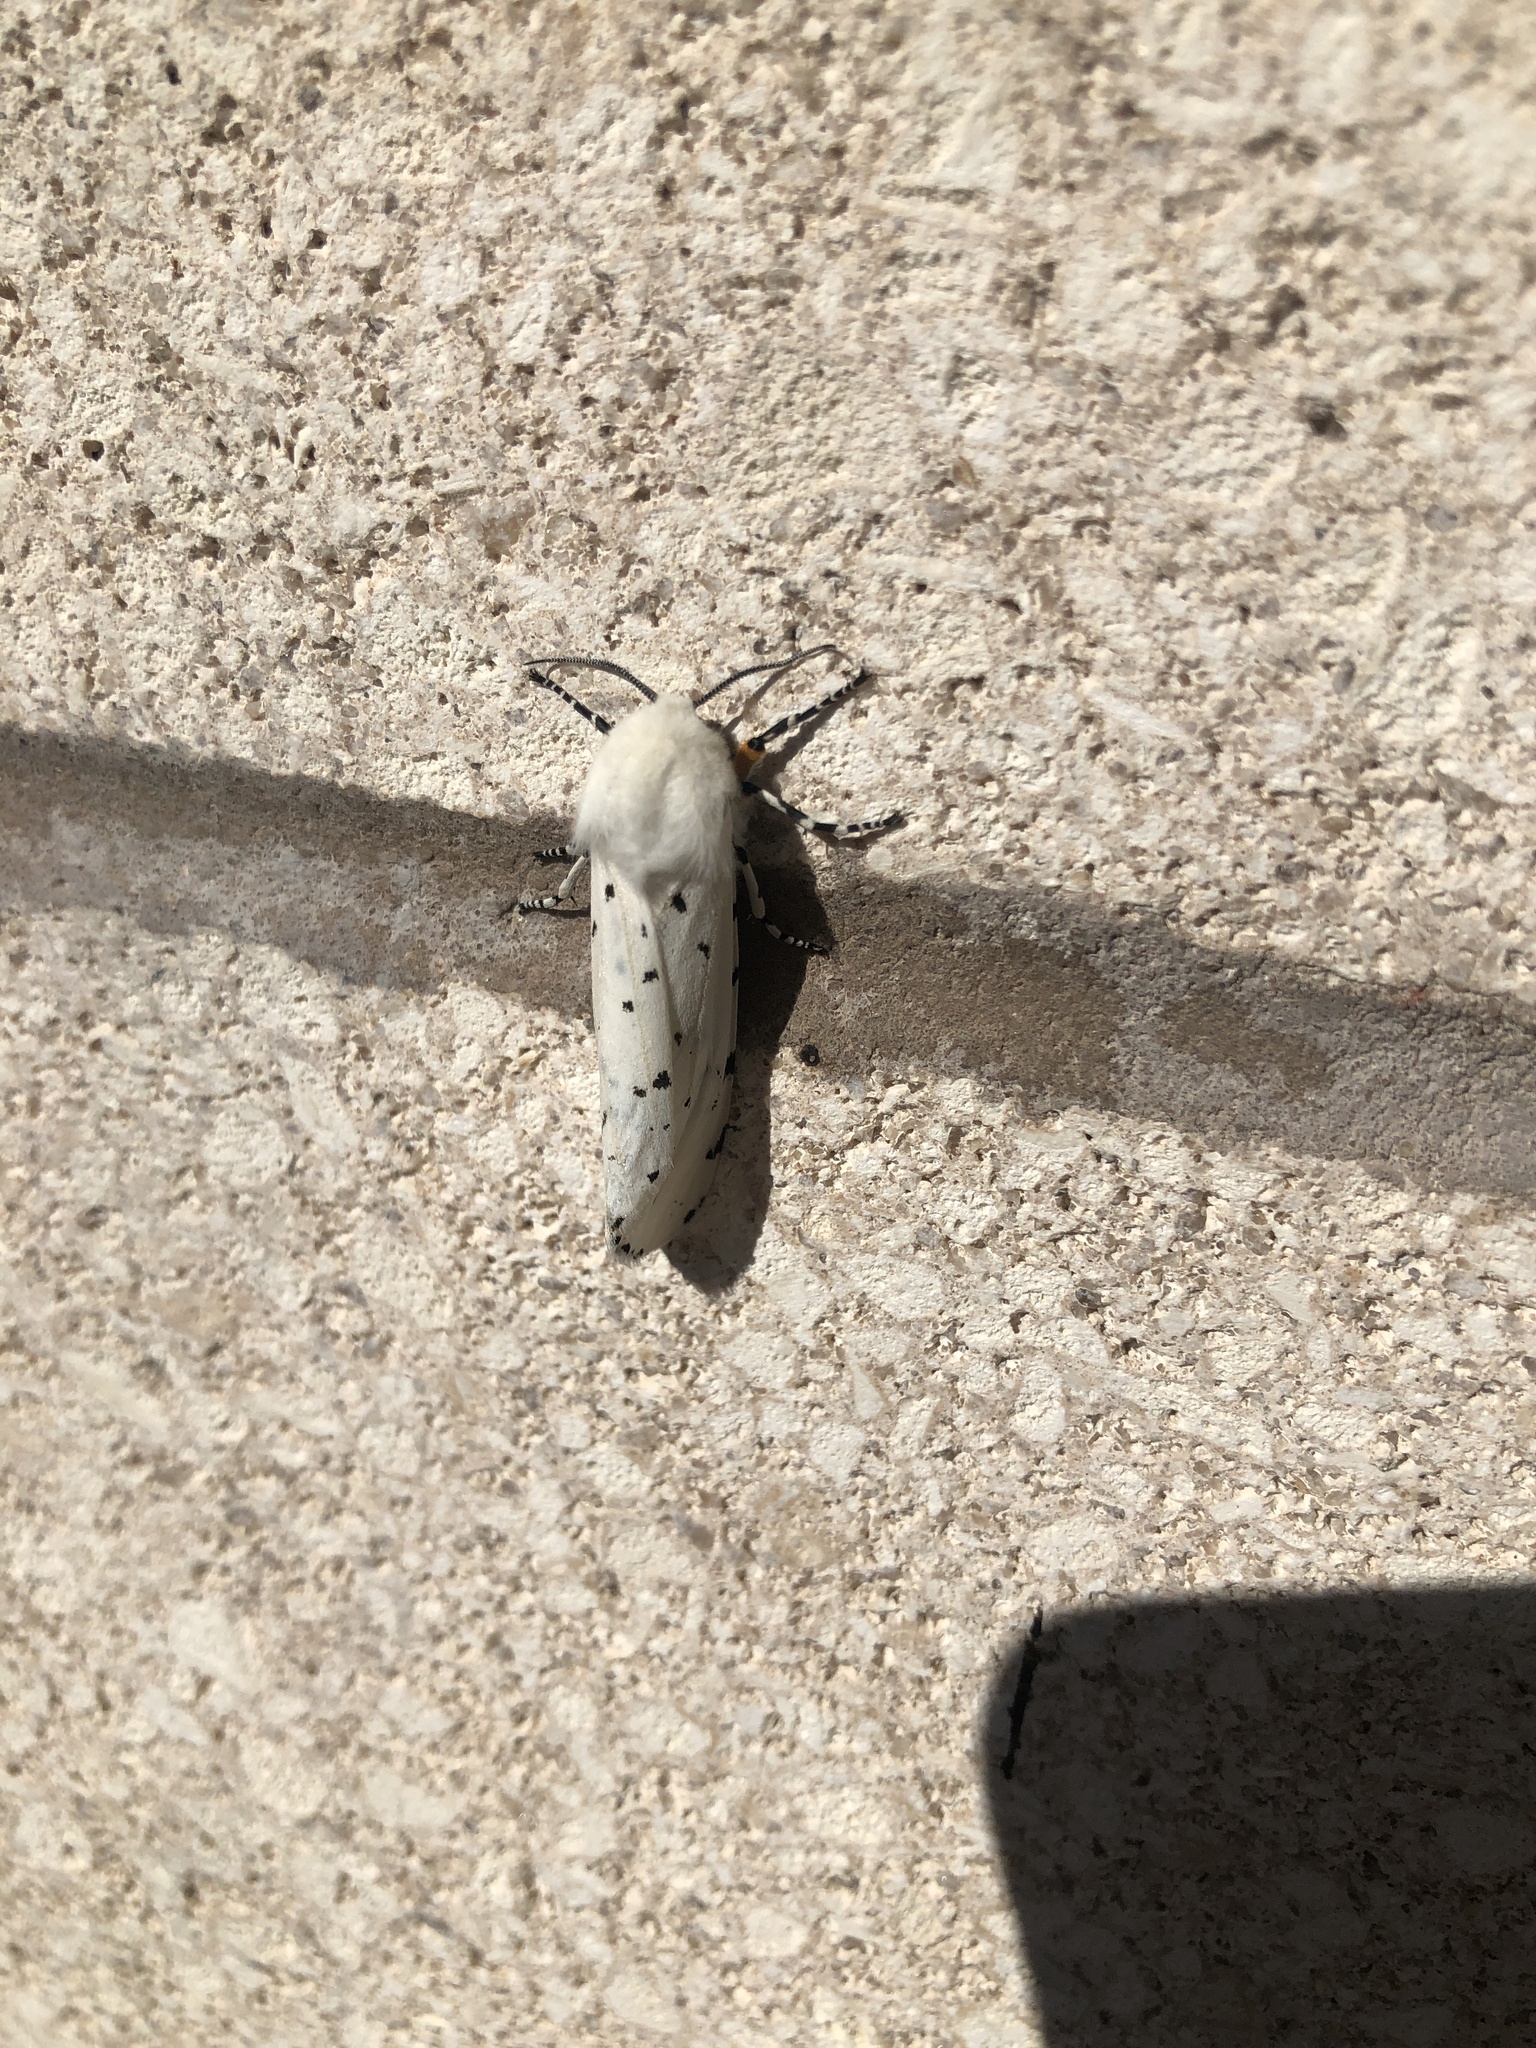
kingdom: Animalia
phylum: Arthropoda
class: Insecta
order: Lepidoptera
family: Erebidae
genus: Estigmene
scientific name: Estigmene acrea
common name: Salt marsh moth
